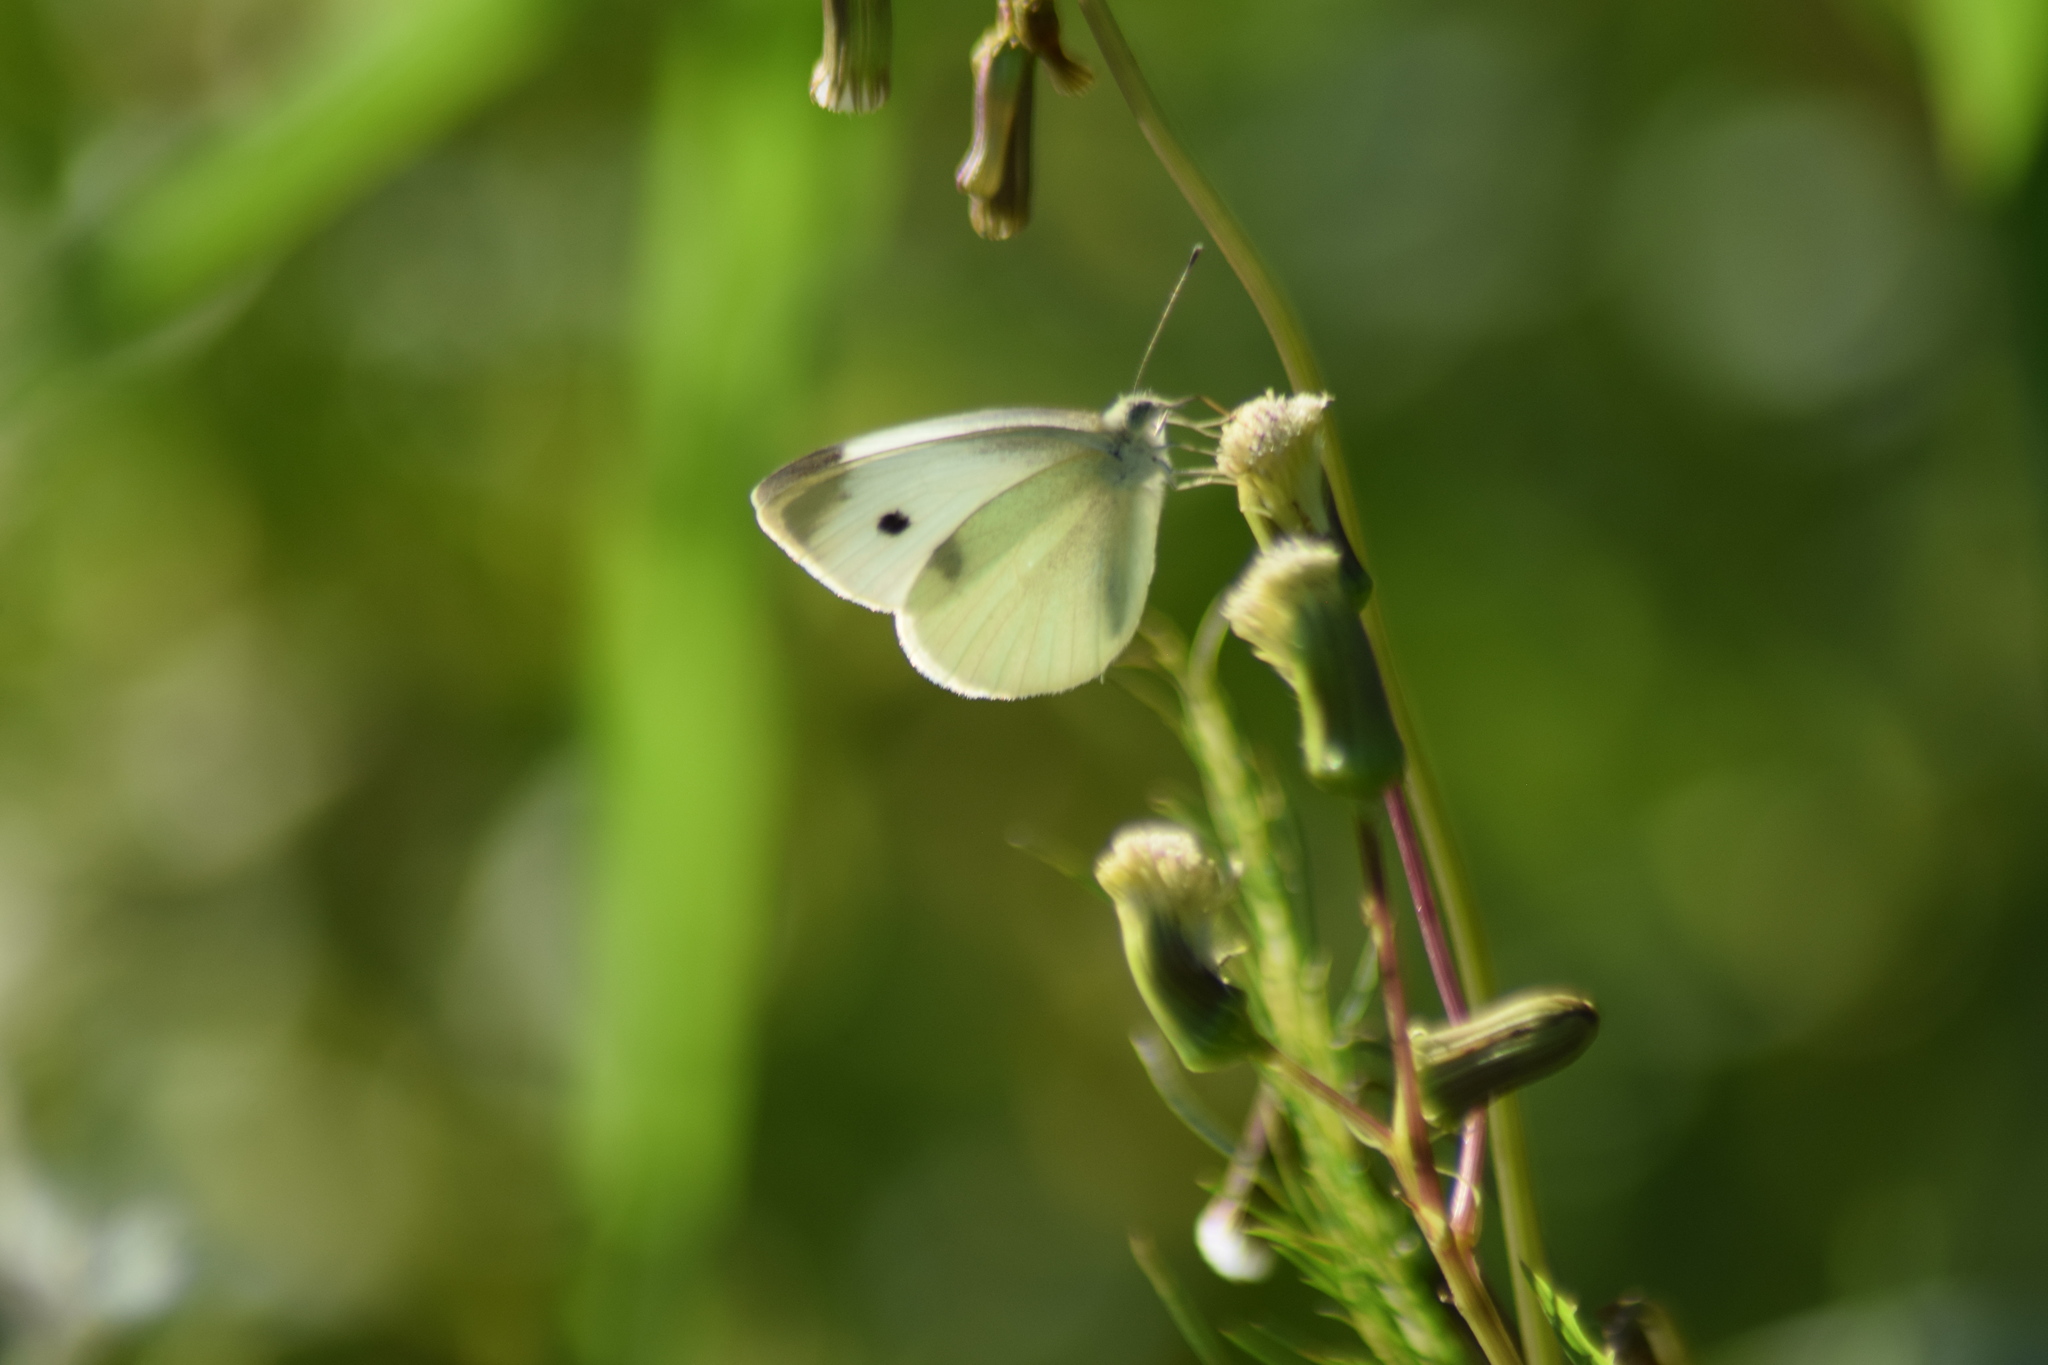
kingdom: Animalia
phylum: Arthropoda
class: Insecta
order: Lepidoptera
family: Pieridae
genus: Pieris
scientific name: Pieris rapae
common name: Small white
